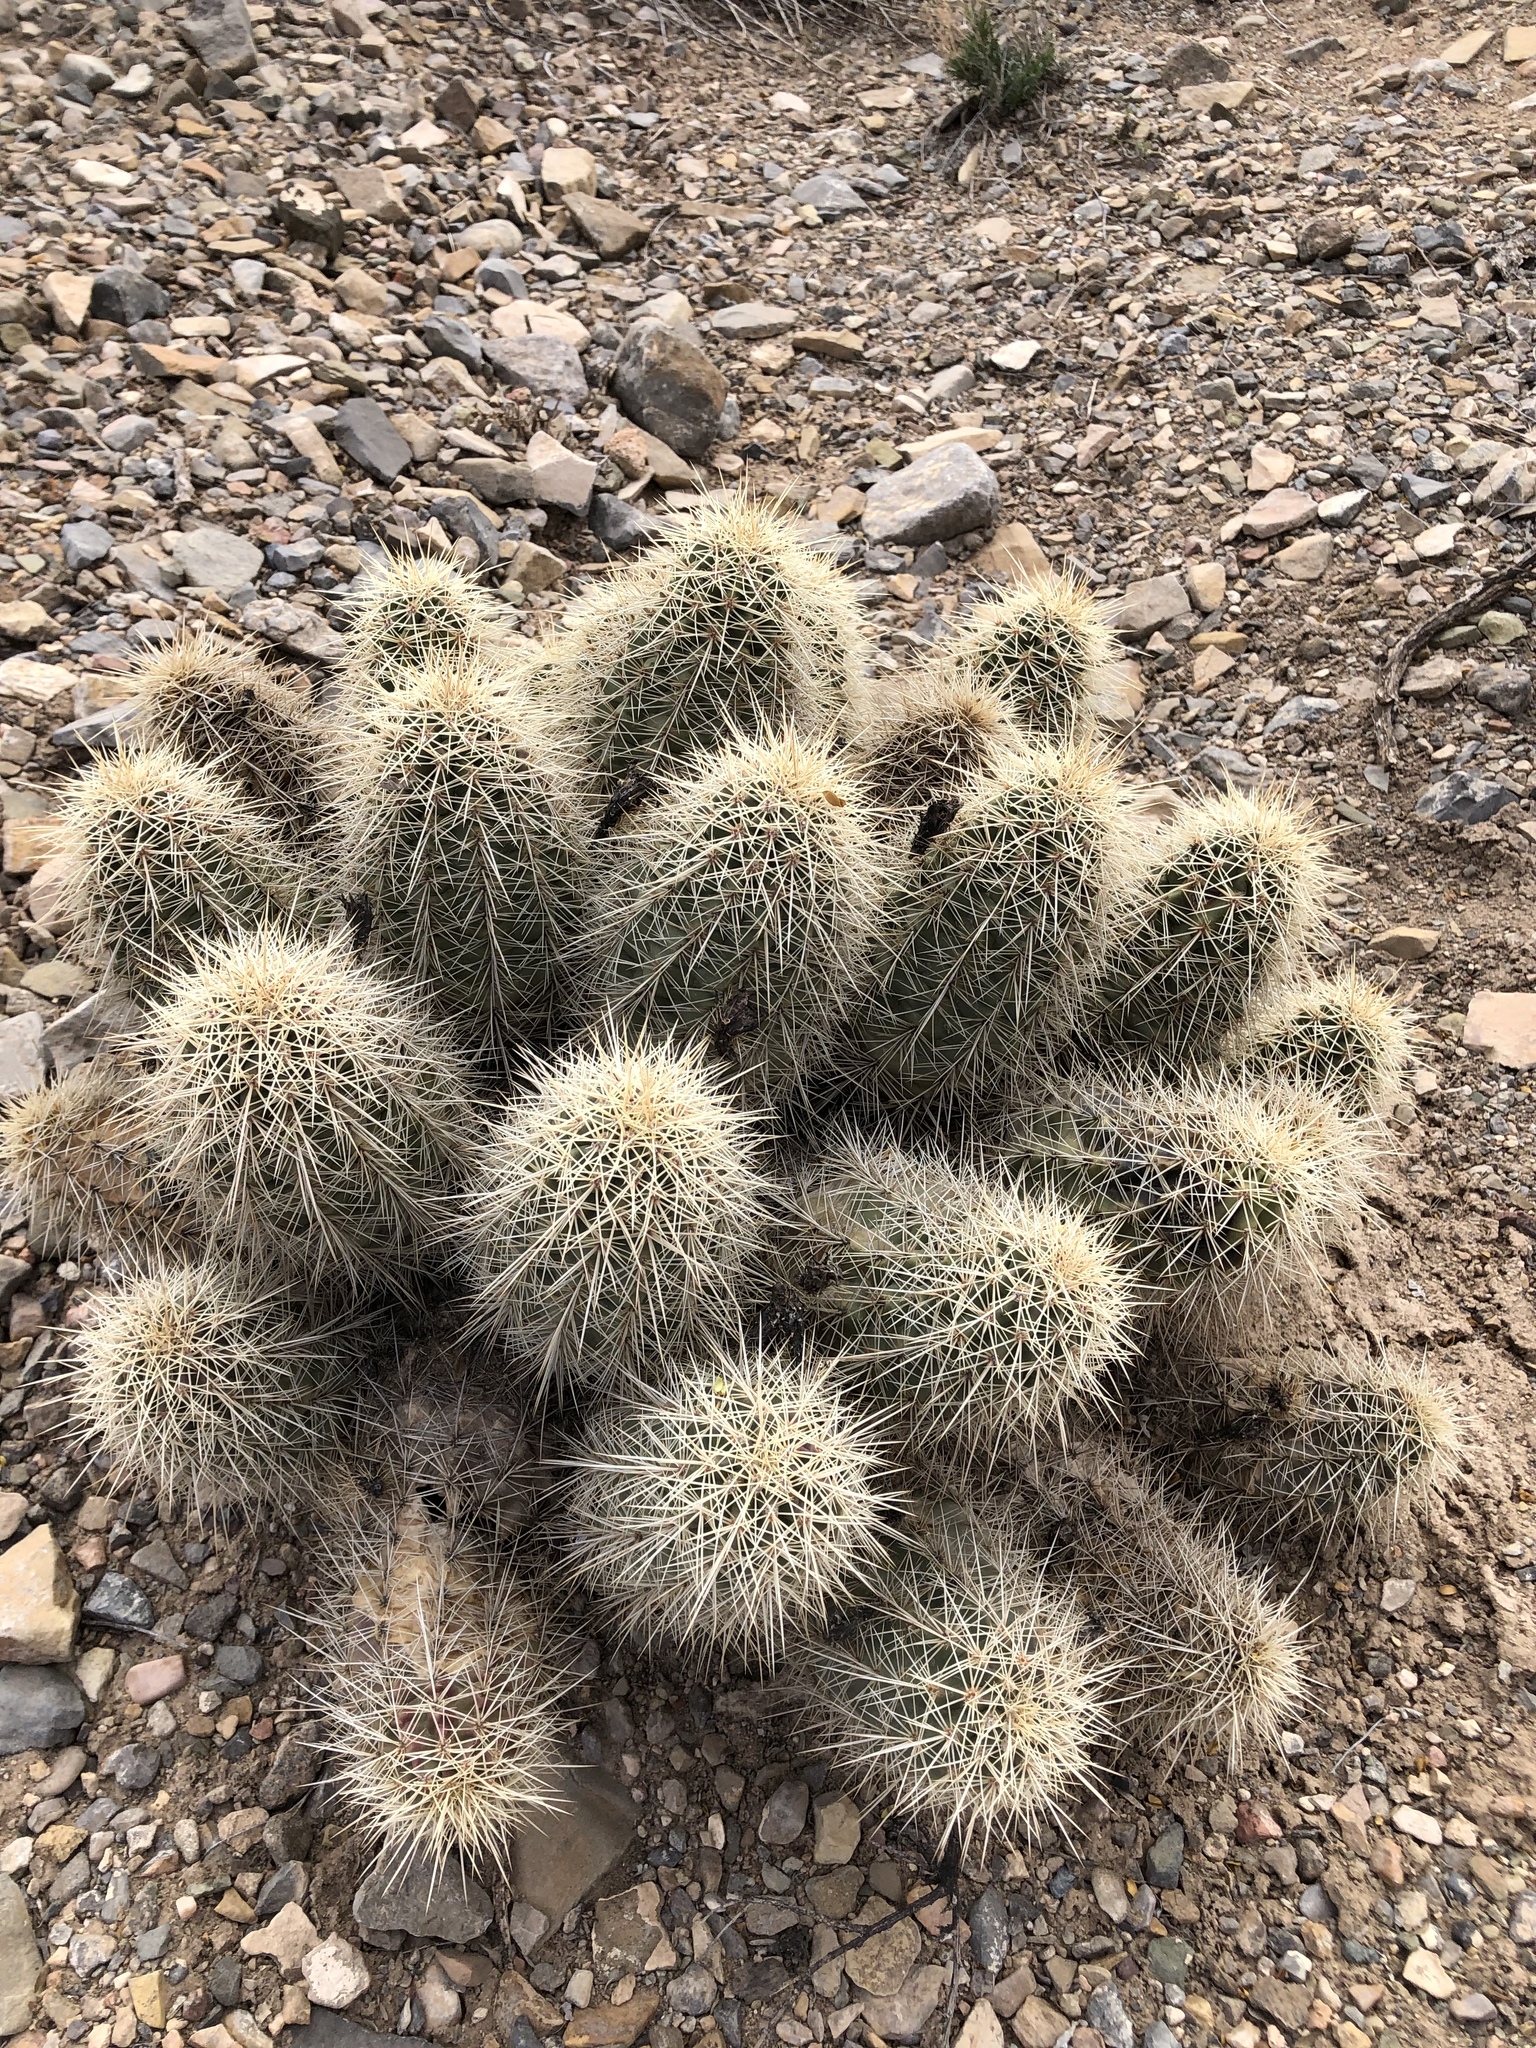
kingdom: Plantae
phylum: Tracheophyta
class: Magnoliopsida
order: Caryophyllales
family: Cactaceae
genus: Echinocereus
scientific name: Echinocereus coccineus
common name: Scarlet hedgehog cactus
